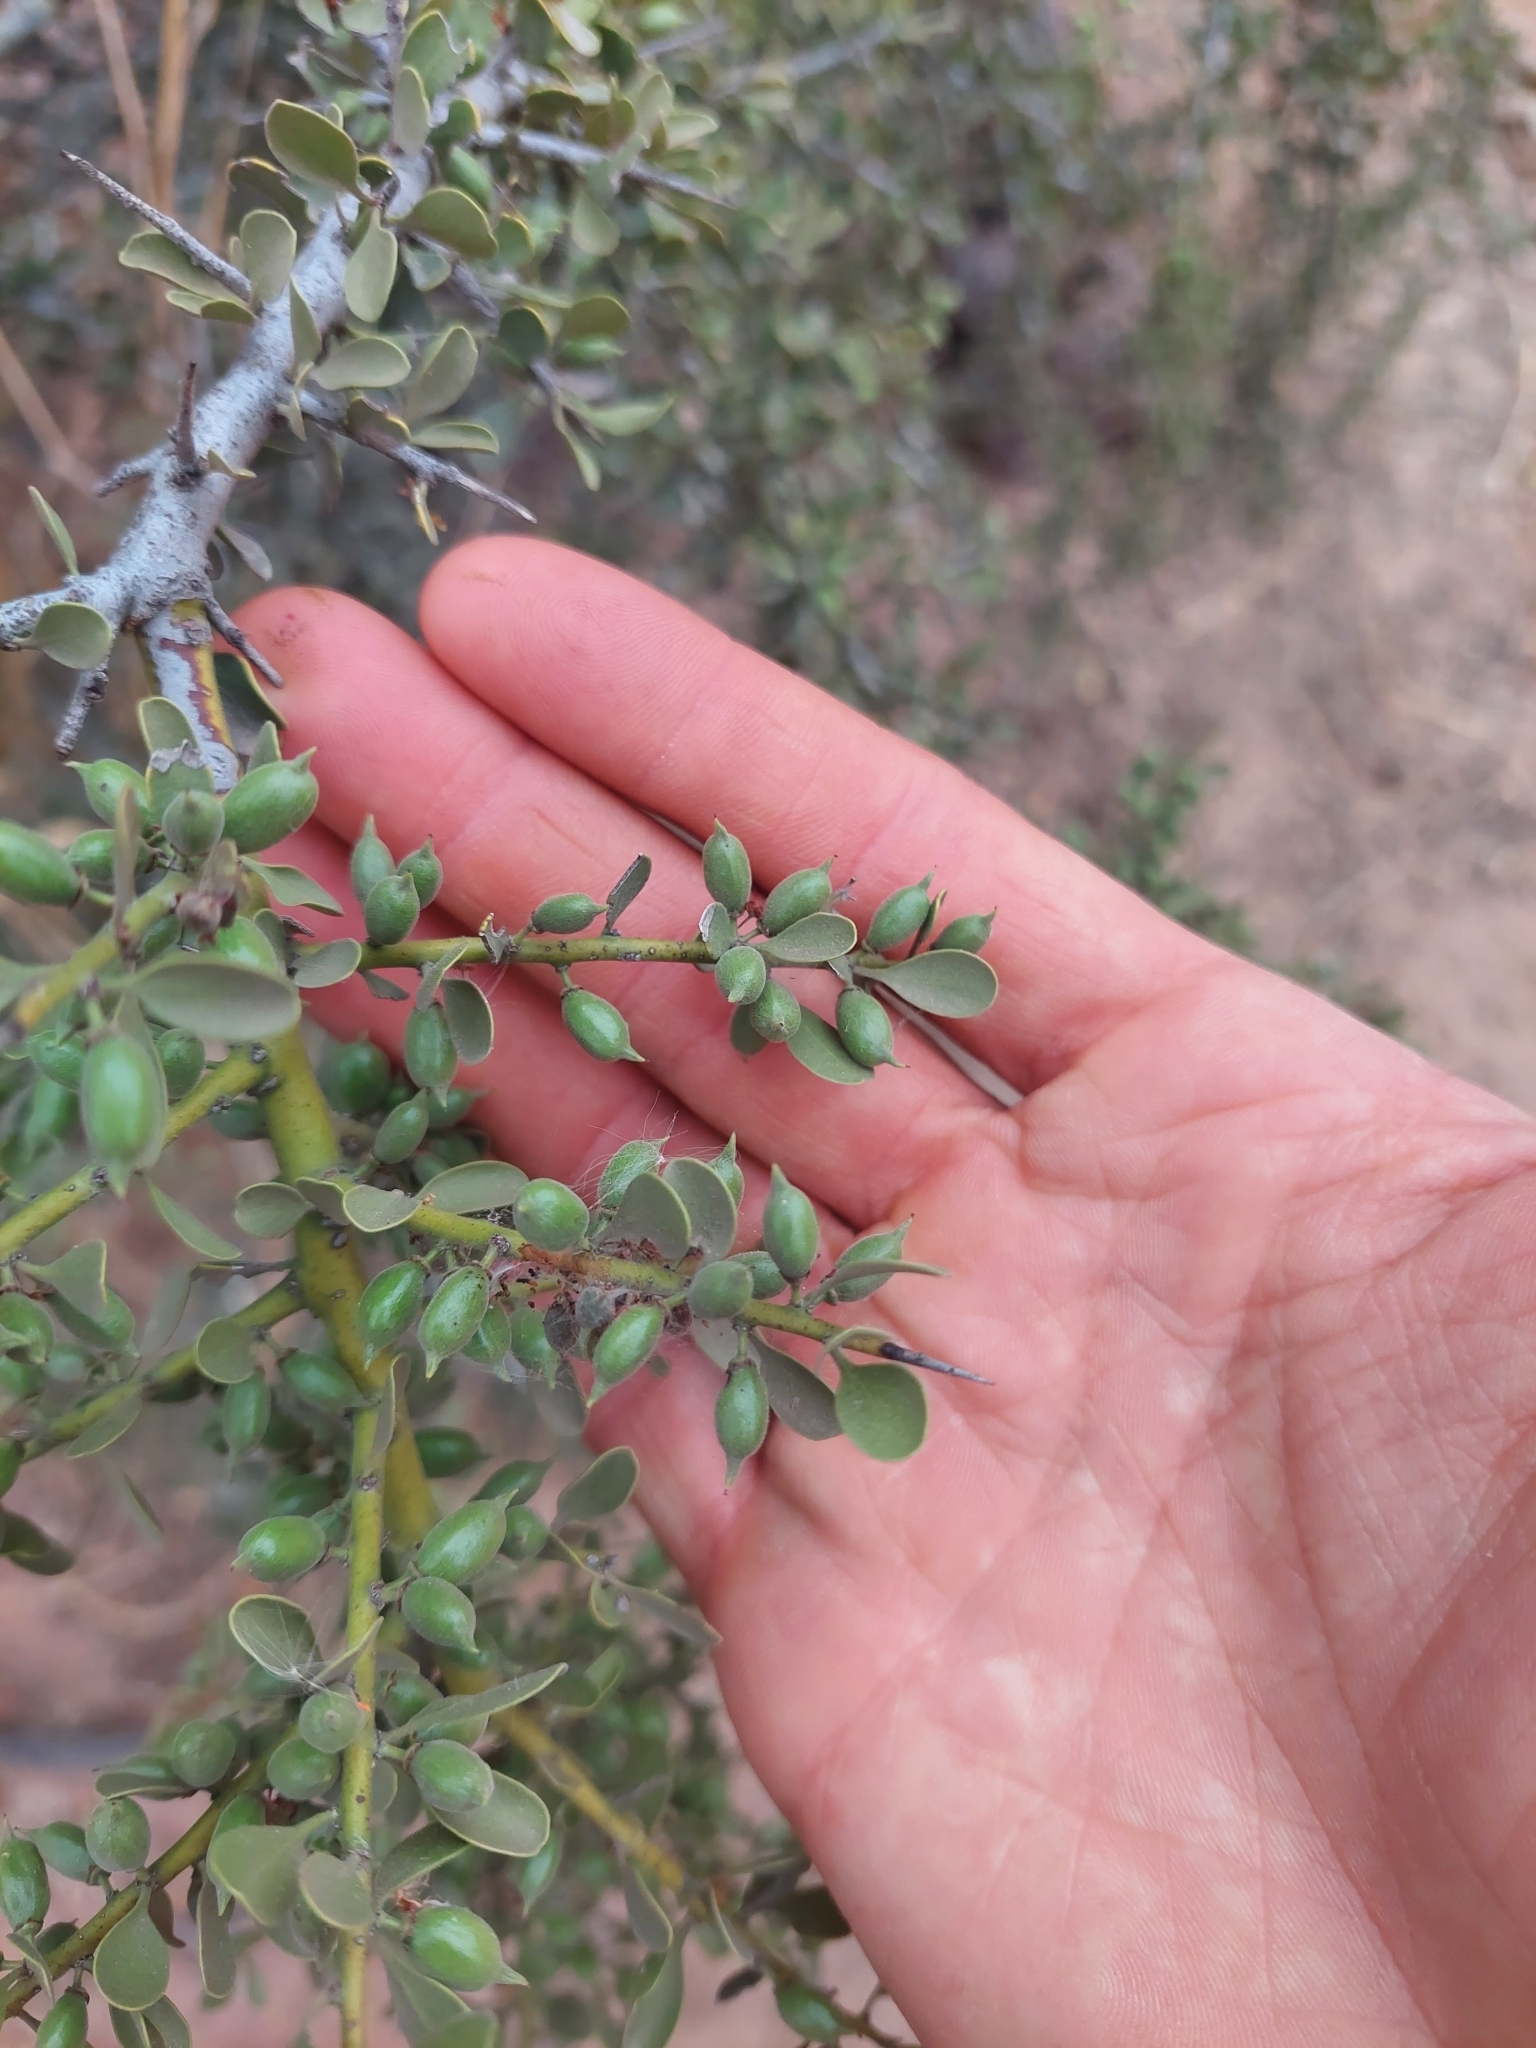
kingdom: Plantae
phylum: Tracheophyta
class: Magnoliopsida
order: Celastrales
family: Celastraceae
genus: Monteverdia
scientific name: Monteverdia spinosa
